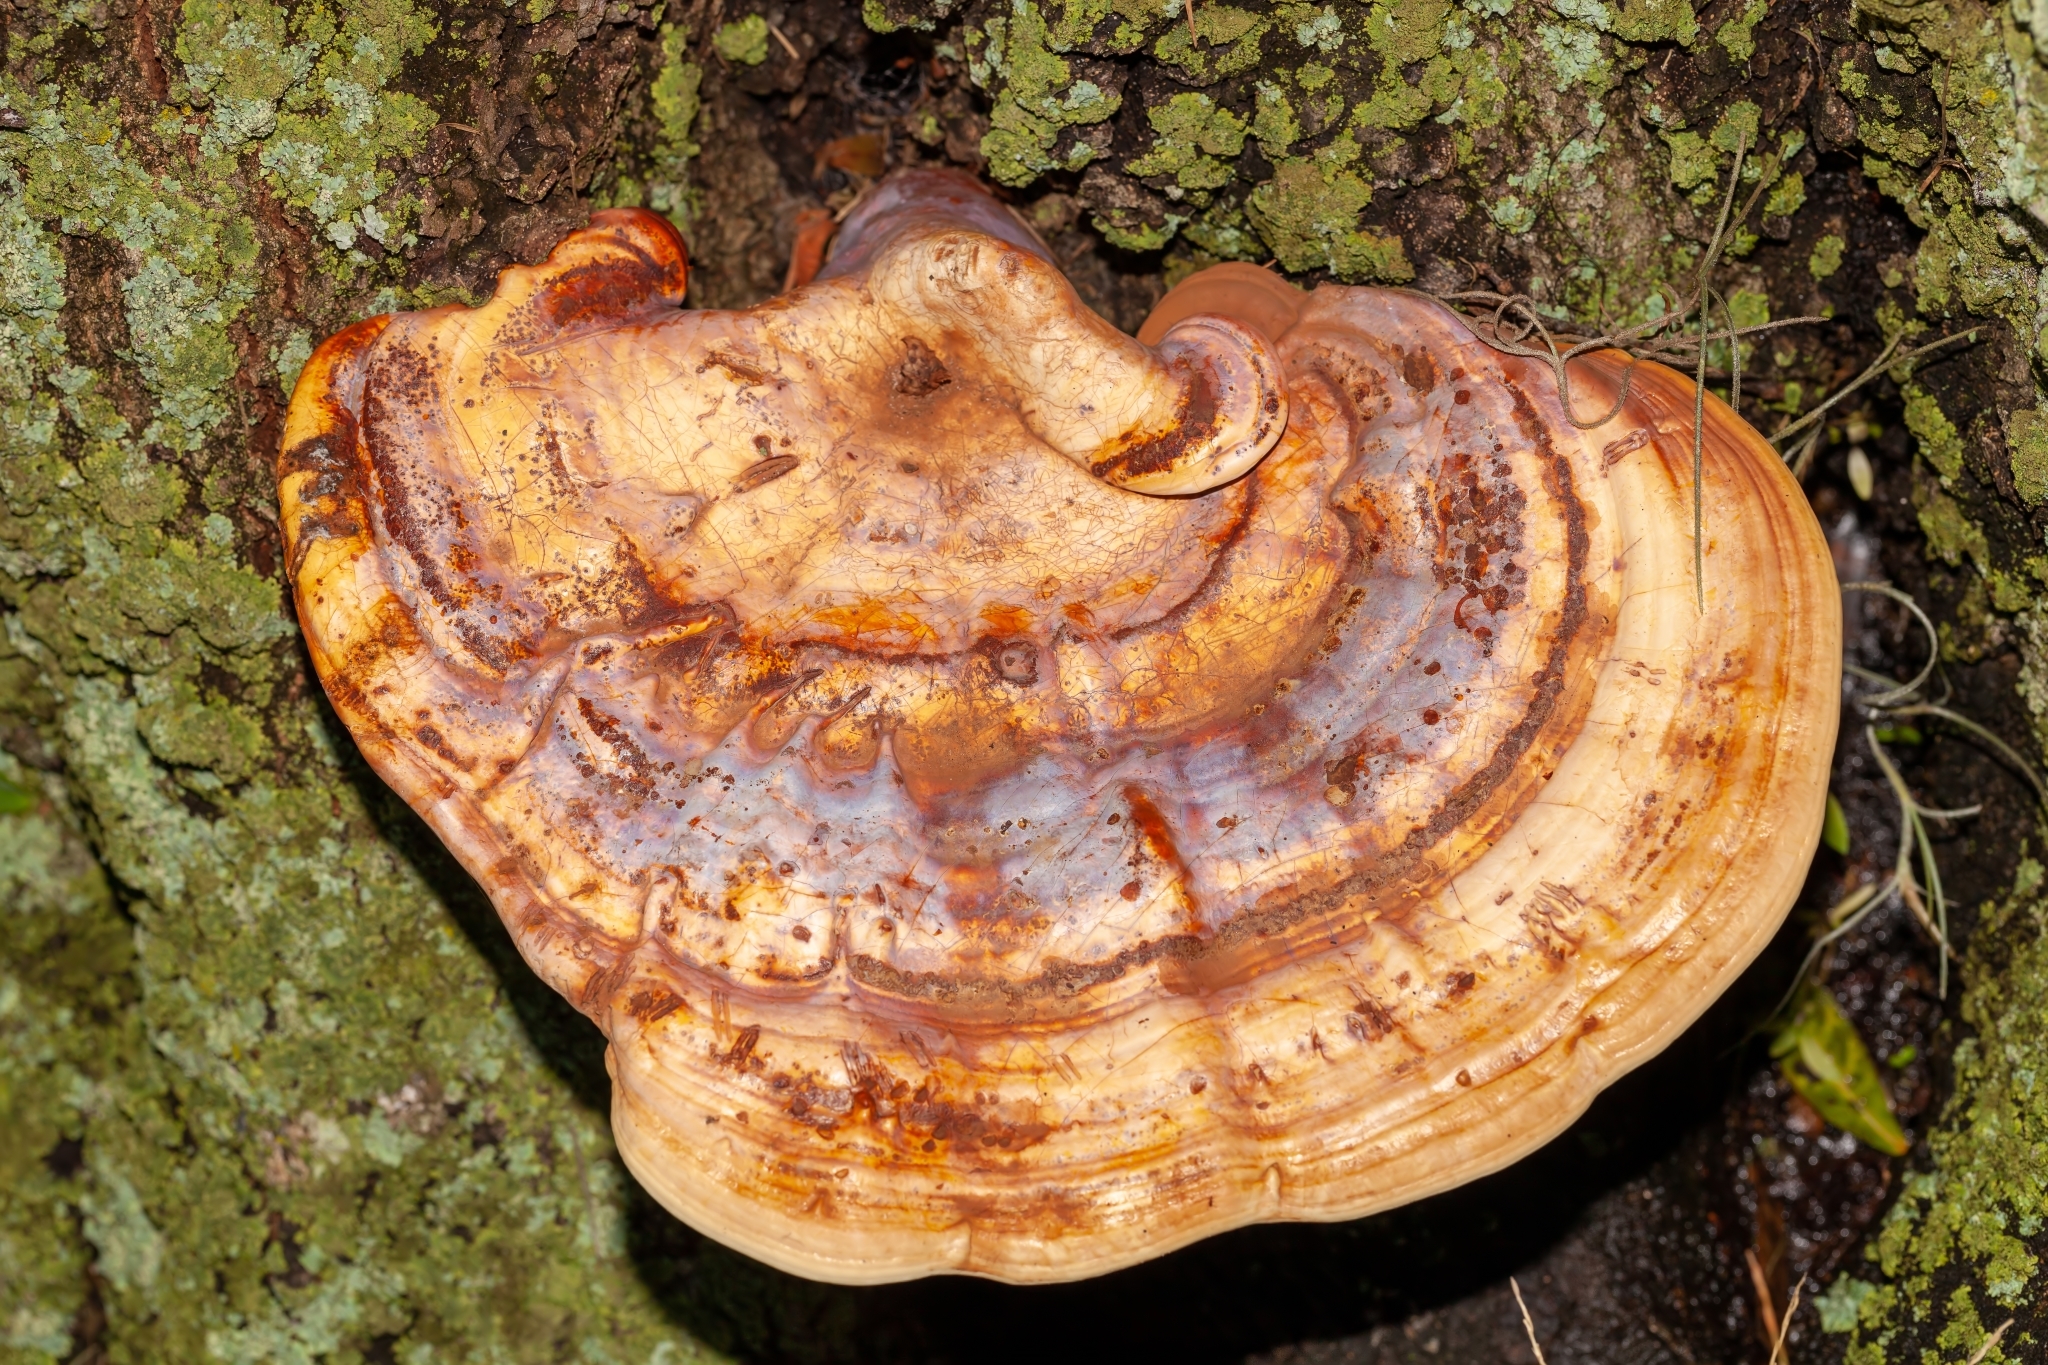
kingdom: Fungi
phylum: Basidiomycota
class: Agaricomycetes
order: Polyporales
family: Polyporaceae
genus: Ganoderma
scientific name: Ganoderma curtisii
